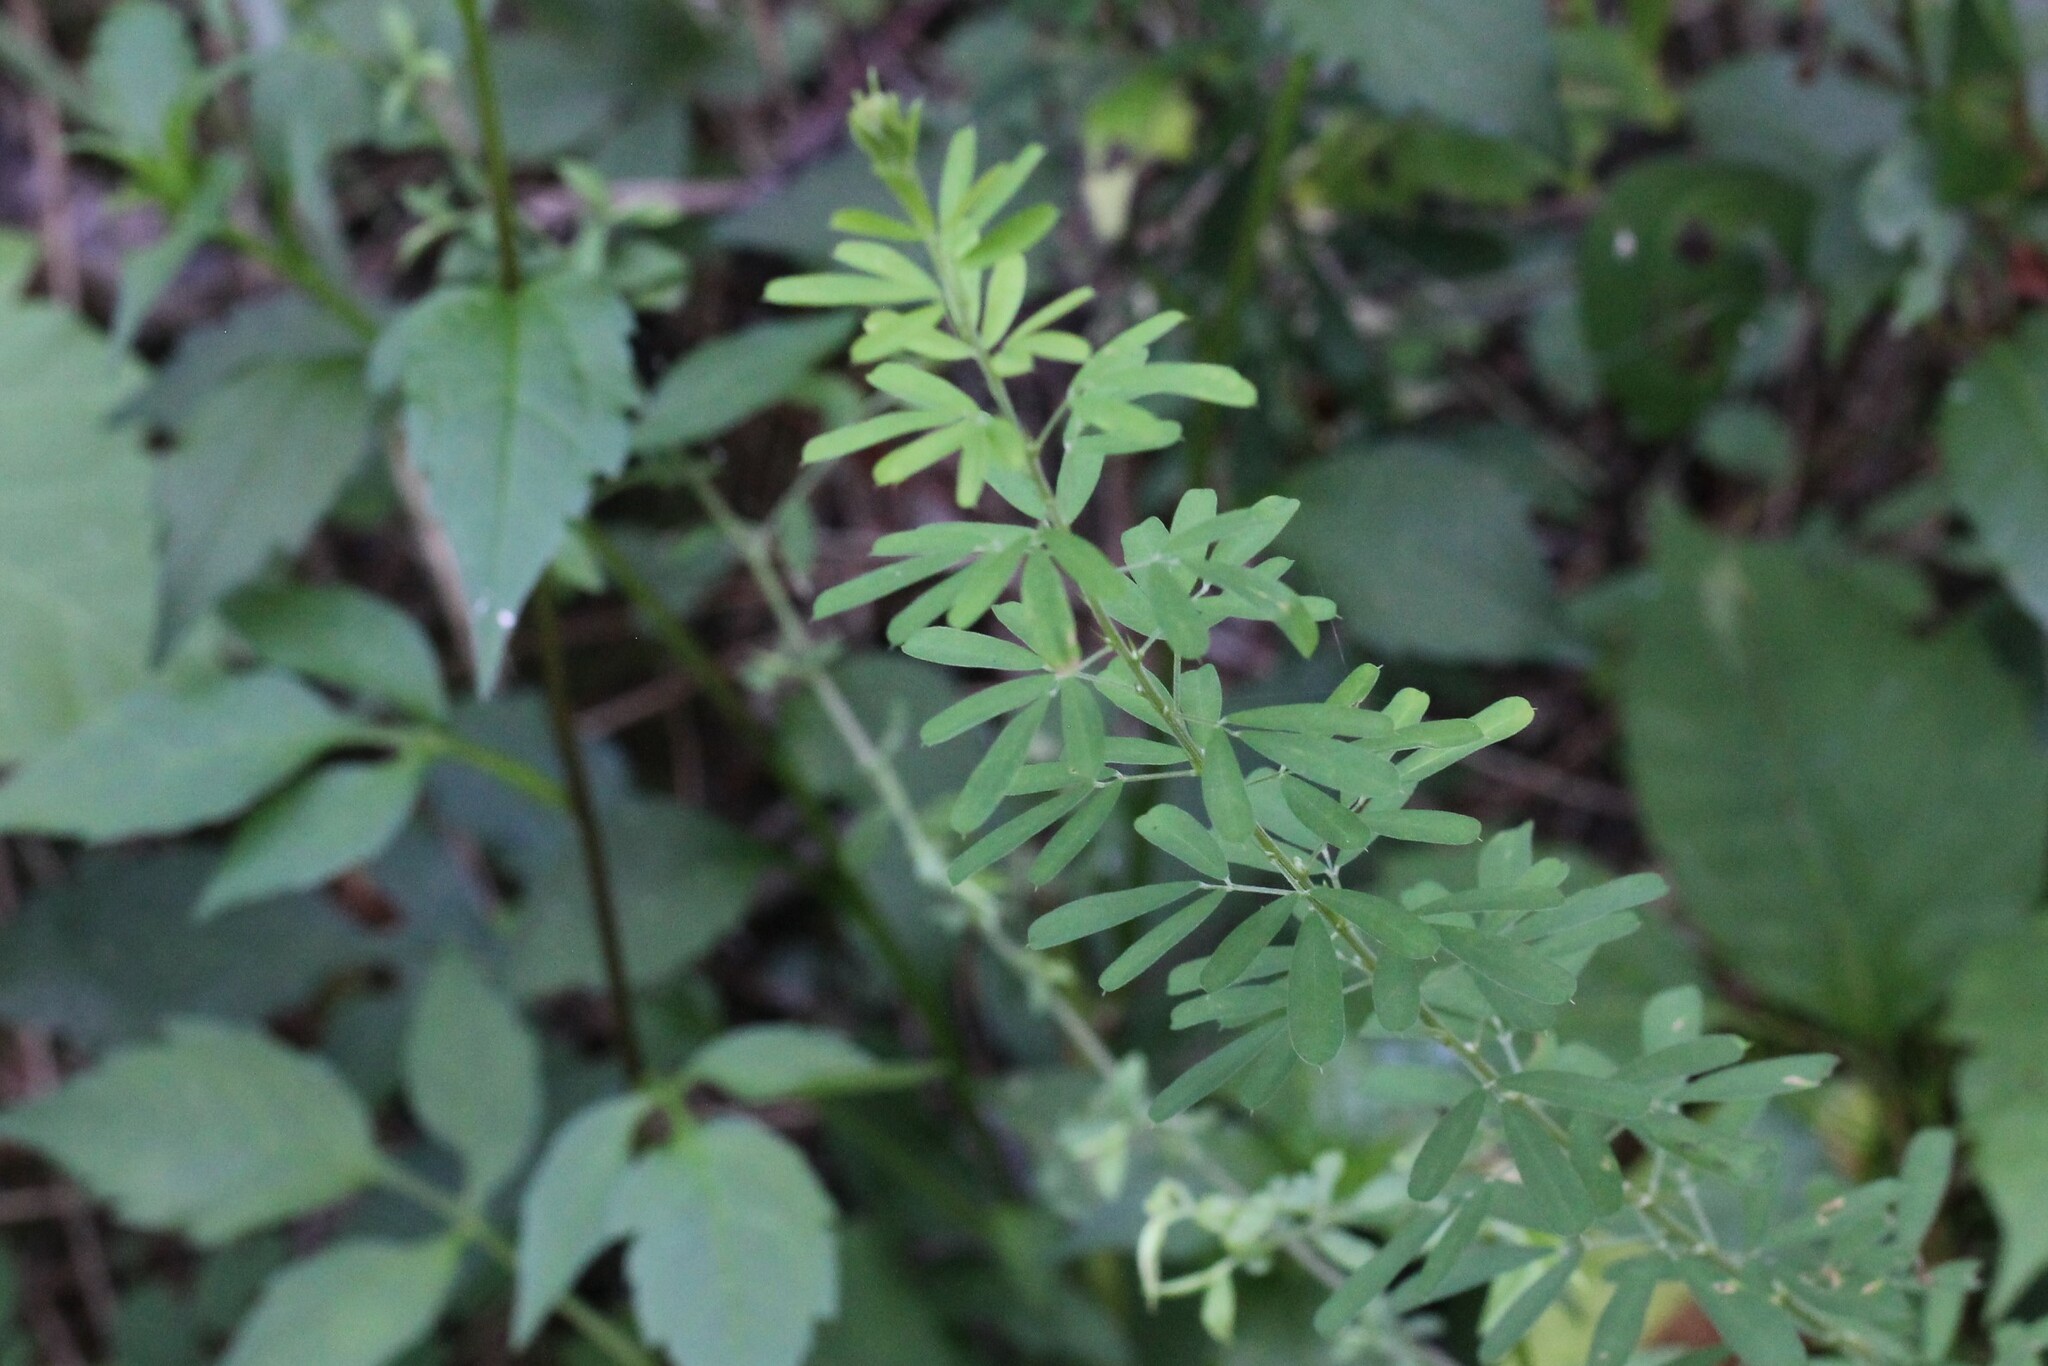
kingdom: Plantae
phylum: Tracheophyta
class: Magnoliopsida
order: Fabales
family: Fabaceae
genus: Lespedeza
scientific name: Lespedeza cuneata
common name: Chinese bush-clover
